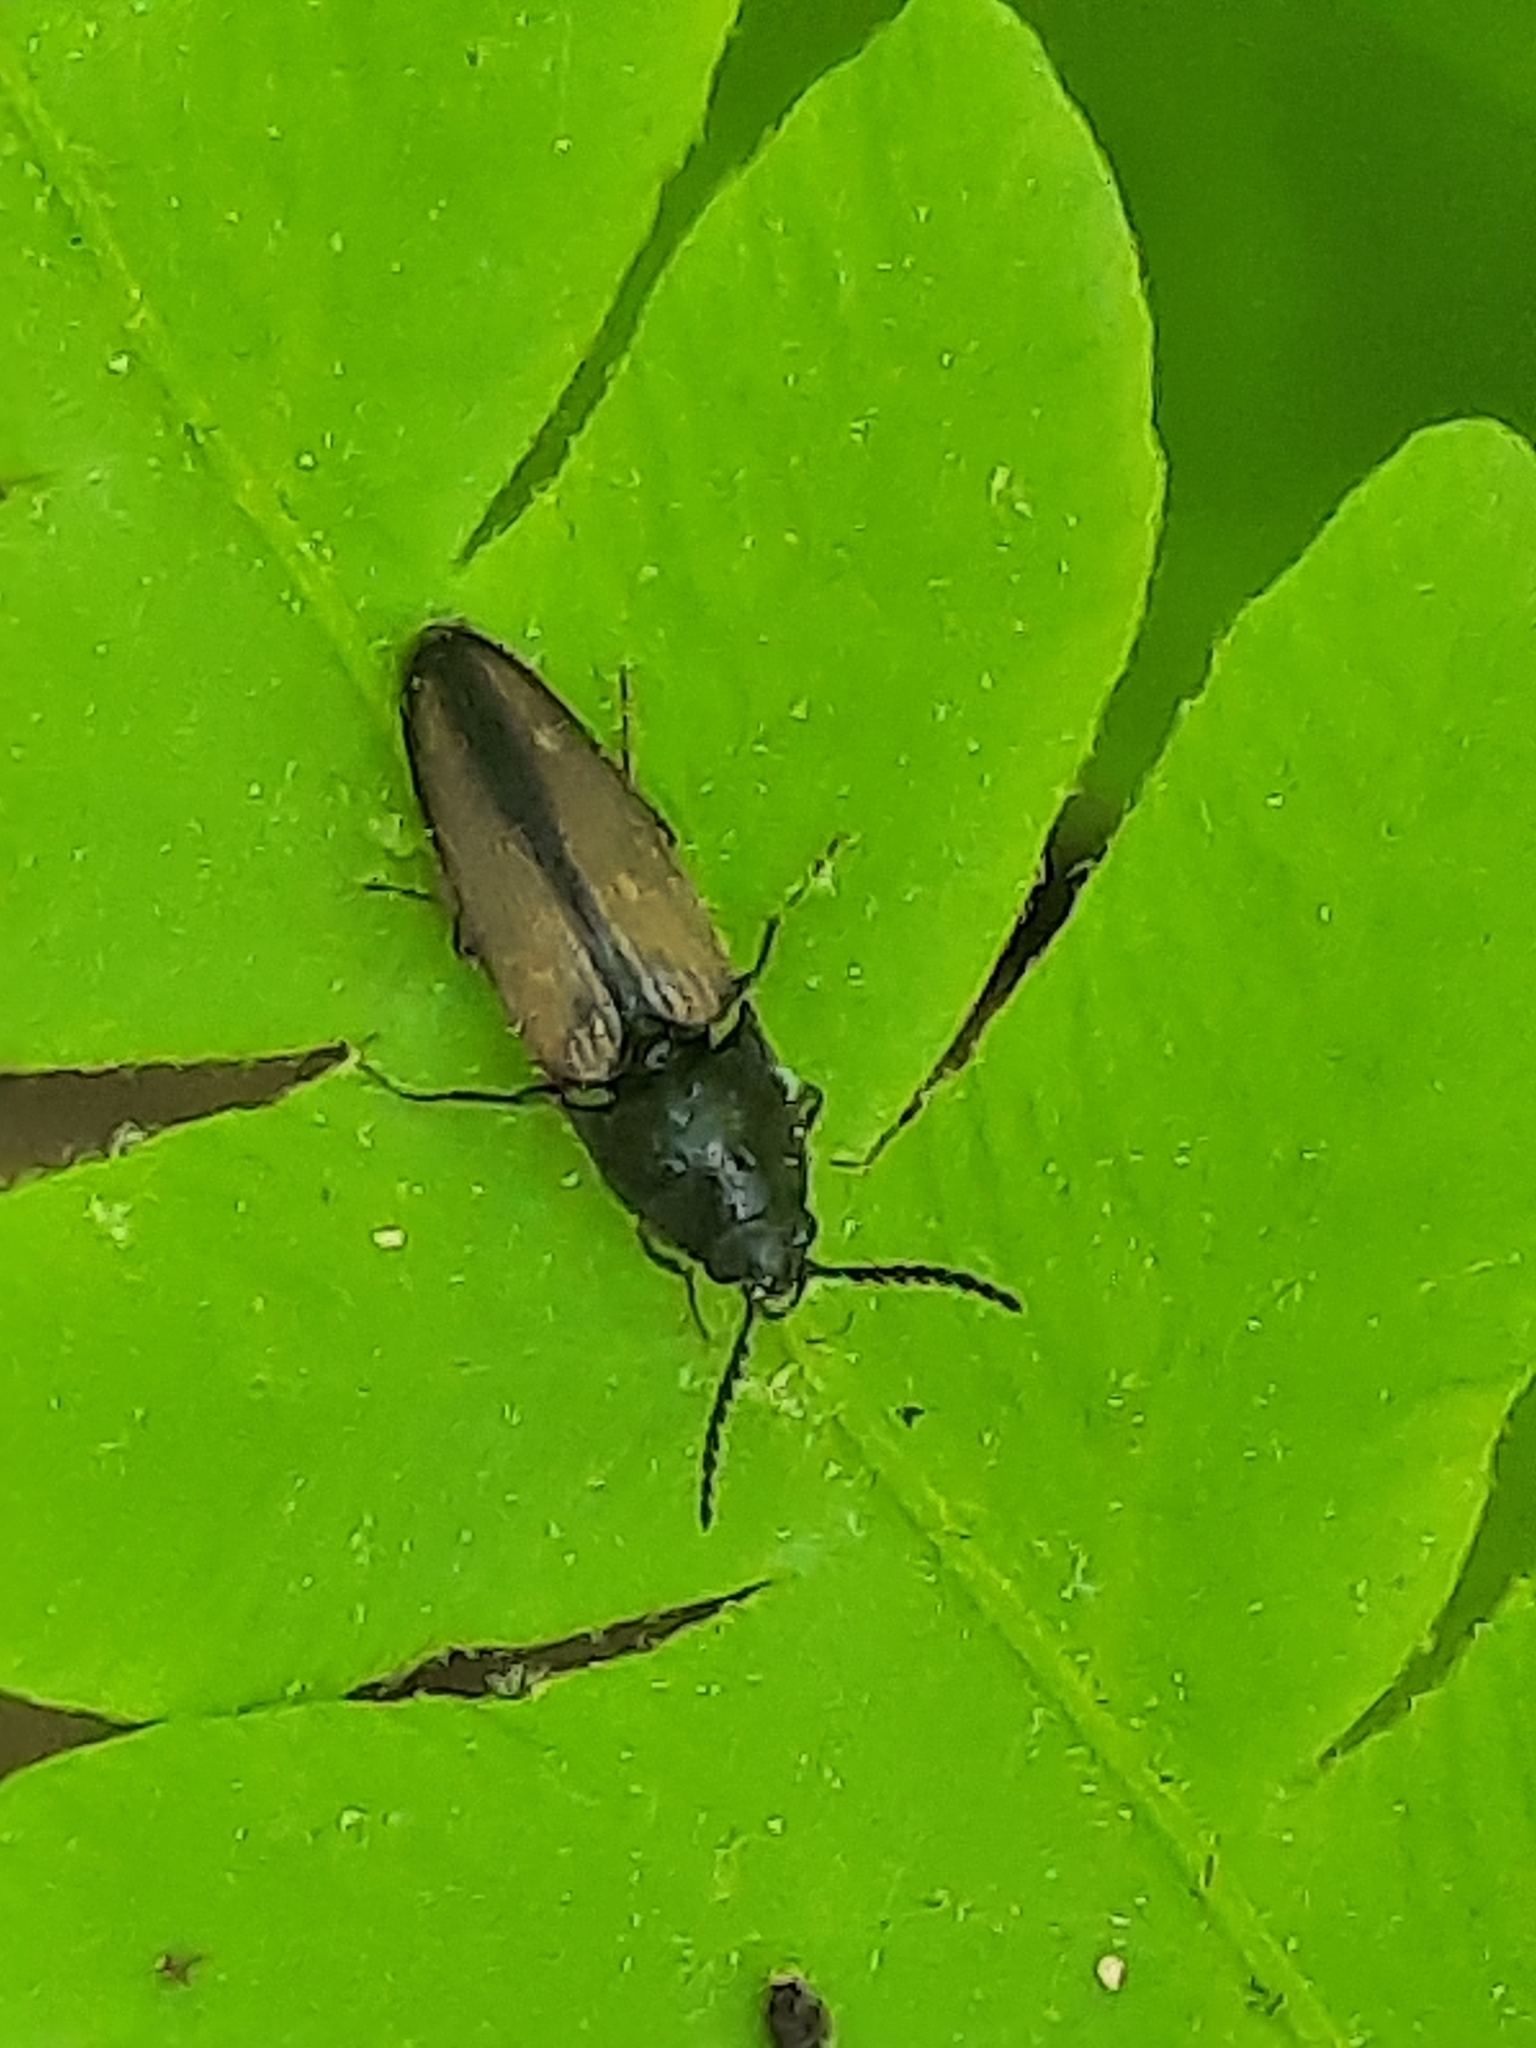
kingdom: Animalia
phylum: Arthropoda
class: Insecta
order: Coleoptera
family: Elateridae
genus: Ampedus
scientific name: Ampedus militaris
